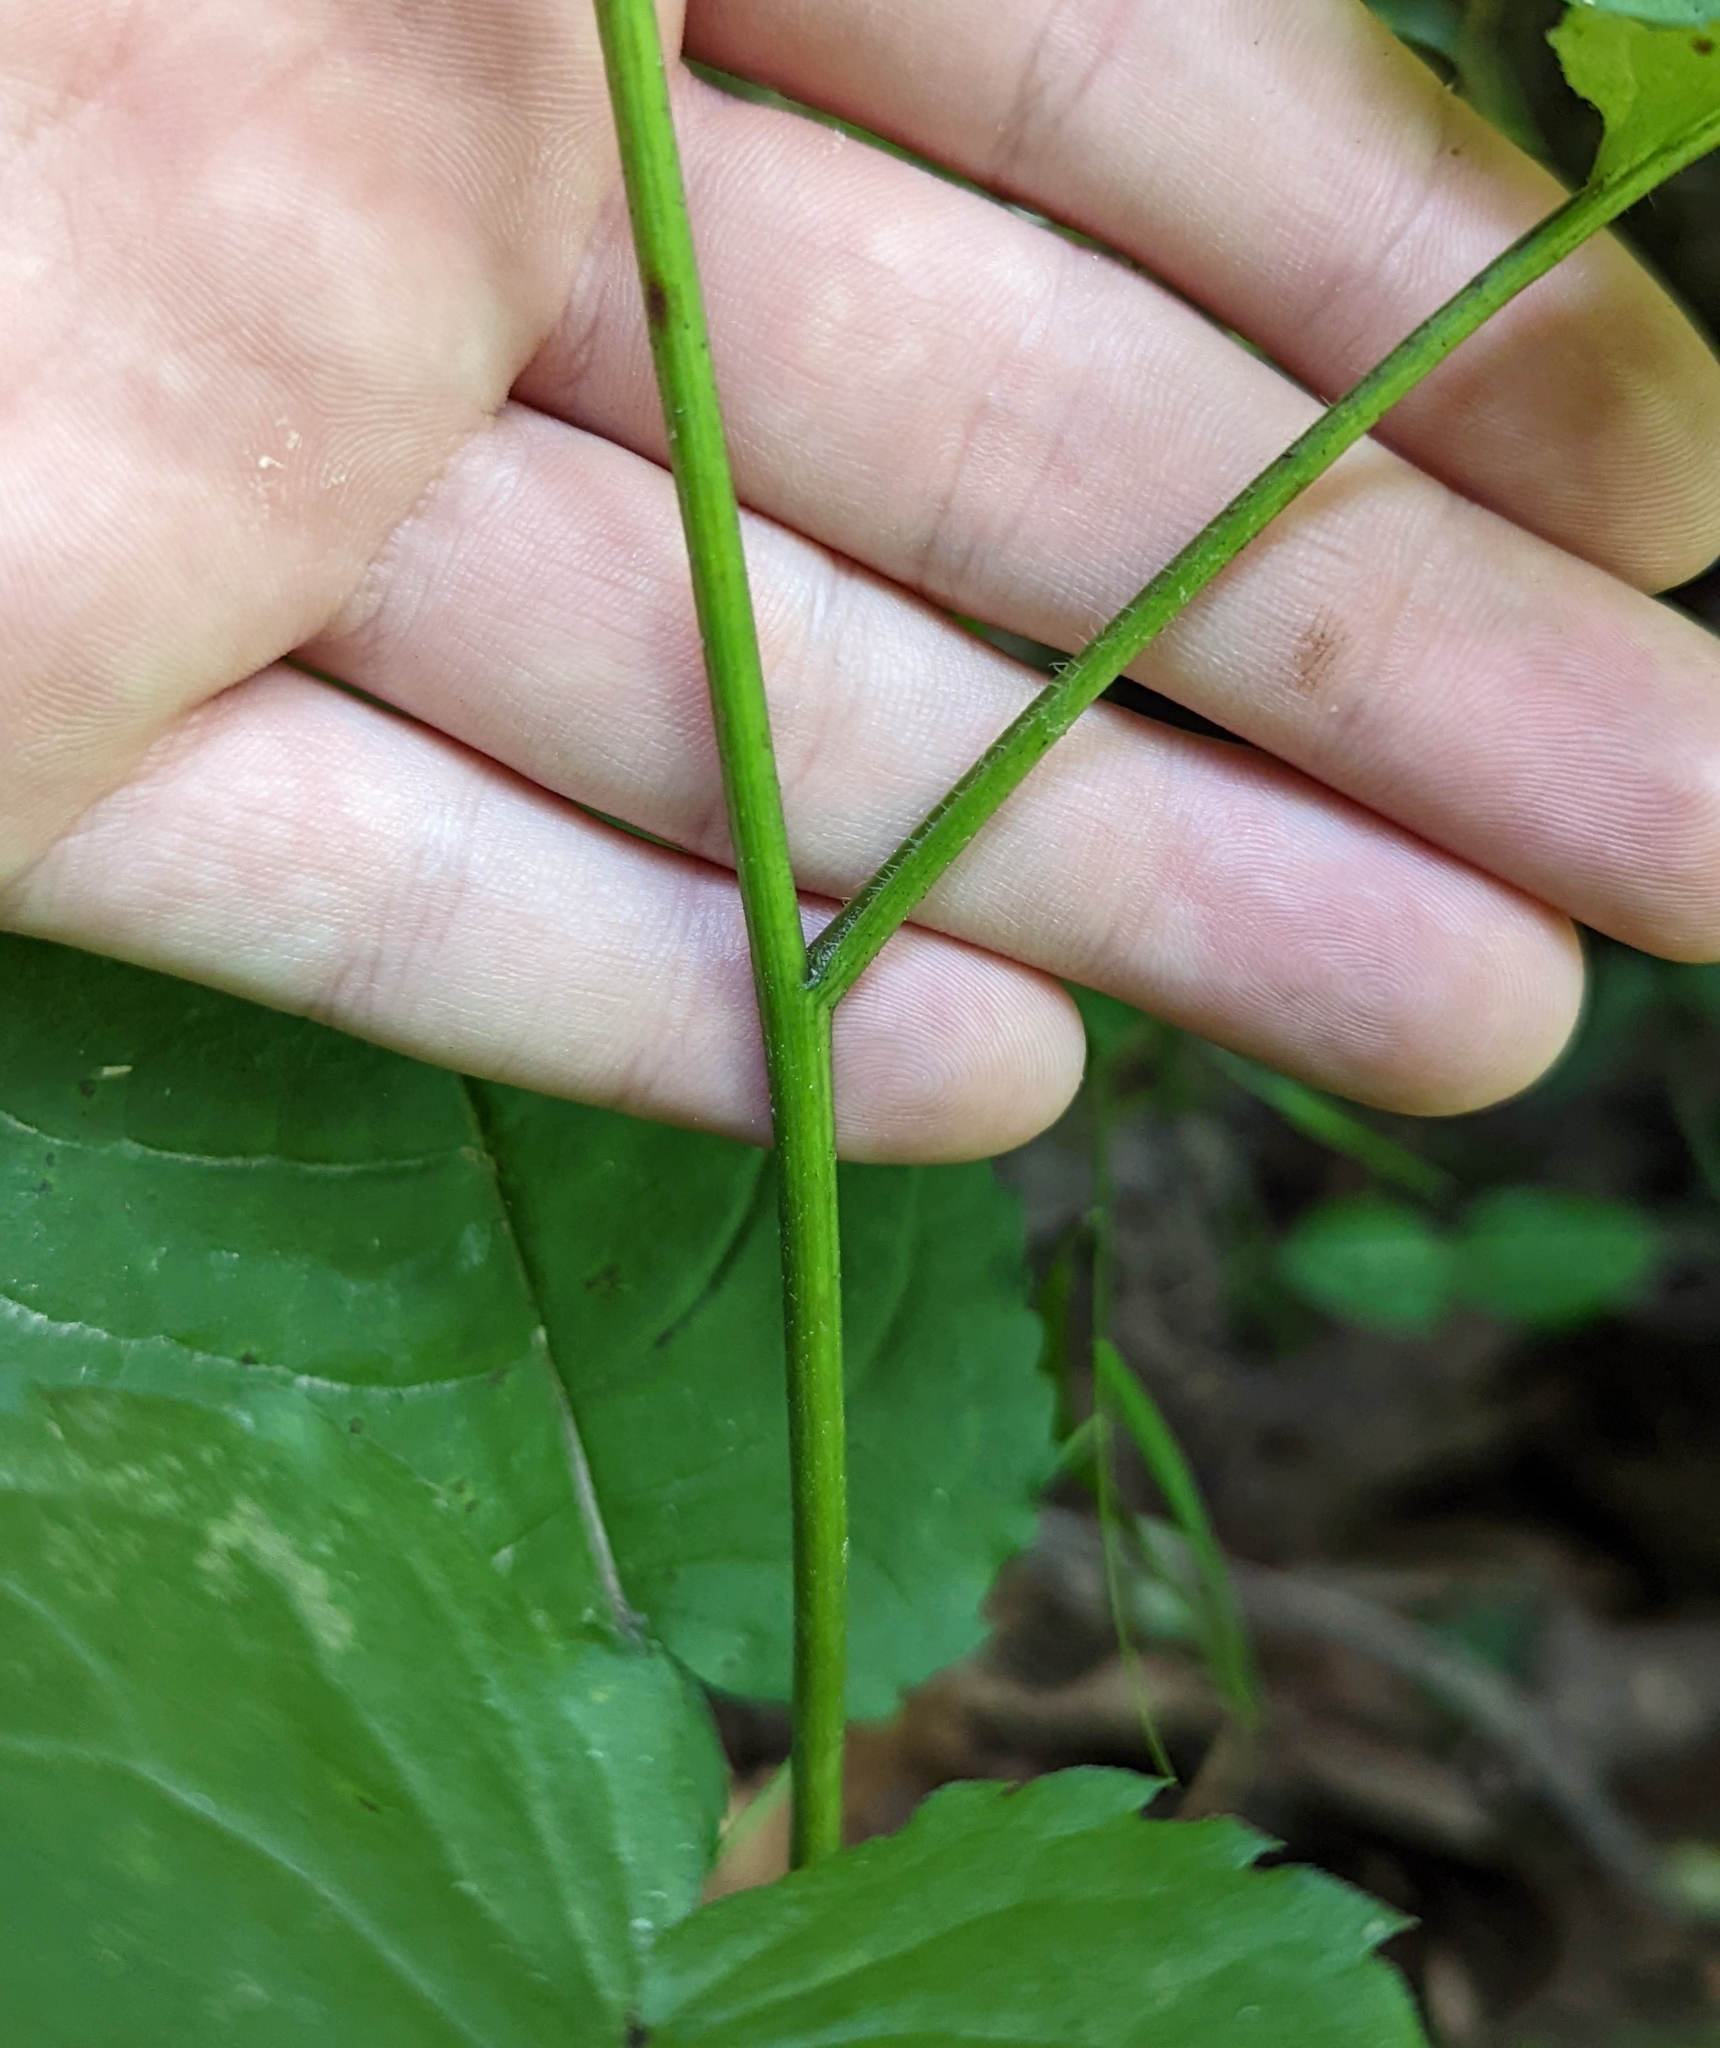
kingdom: Plantae
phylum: Tracheophyta
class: Magnoliopsida
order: Asterales
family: Asteraceae
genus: Eurybia
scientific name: Eurybia divaricata
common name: White wood aster
